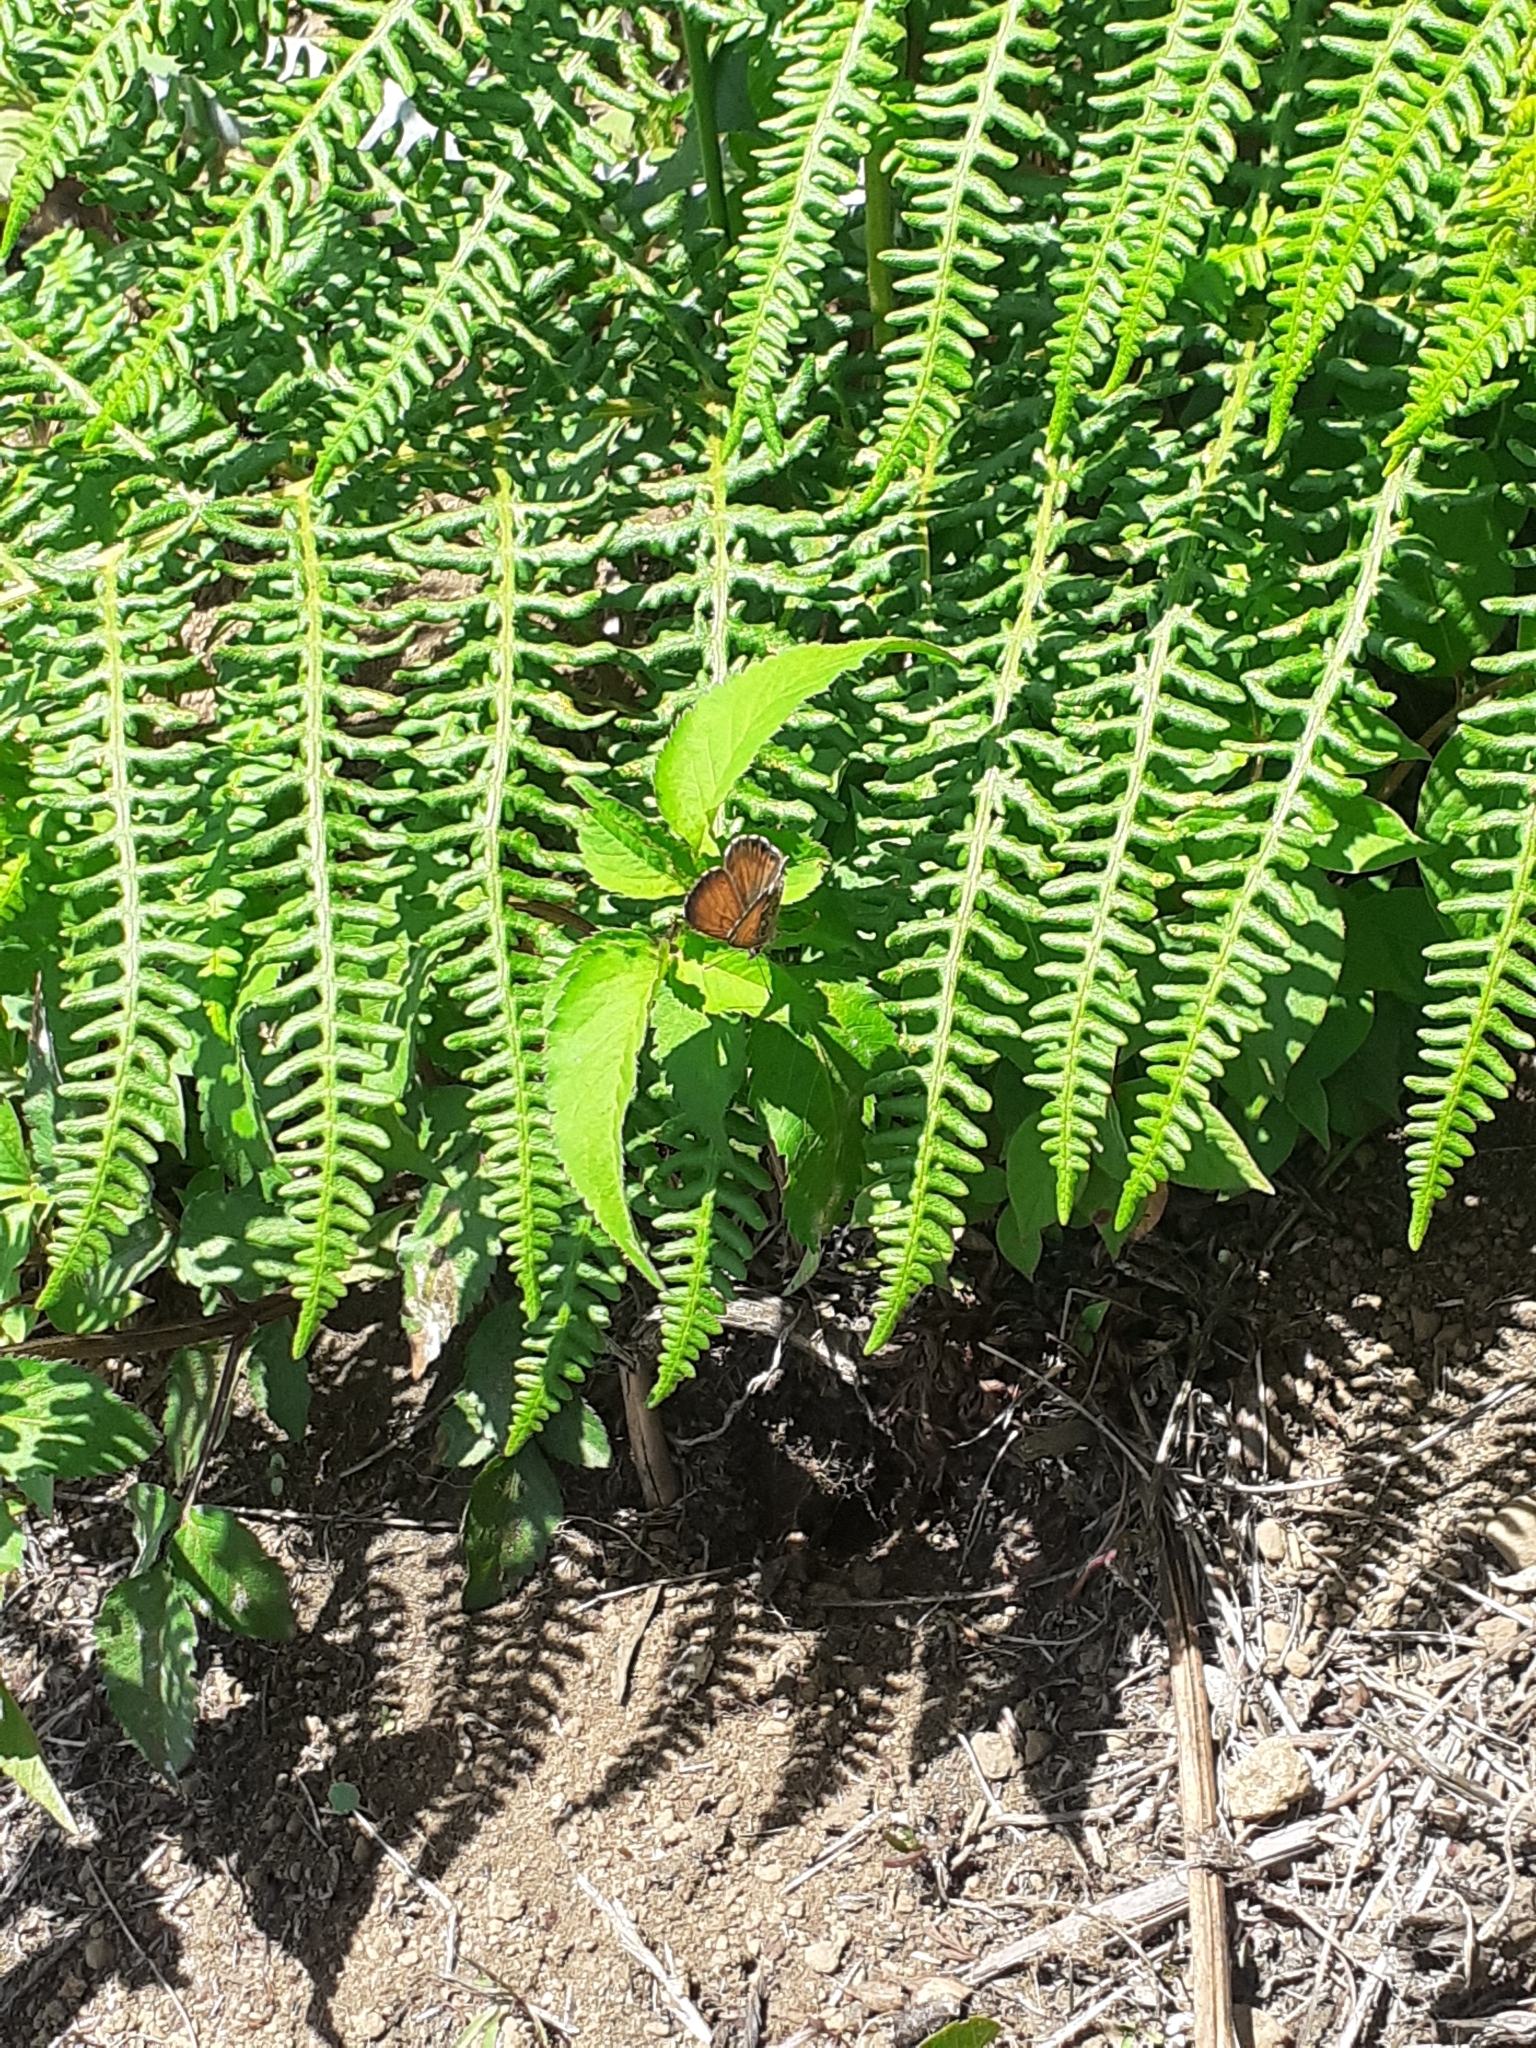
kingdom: Animalia
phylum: Arthropoda
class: Insecta
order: Lepidoptera
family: Lycaenidae
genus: Cyclyrius
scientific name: Cyclyrius webbianus
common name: Canary blue
